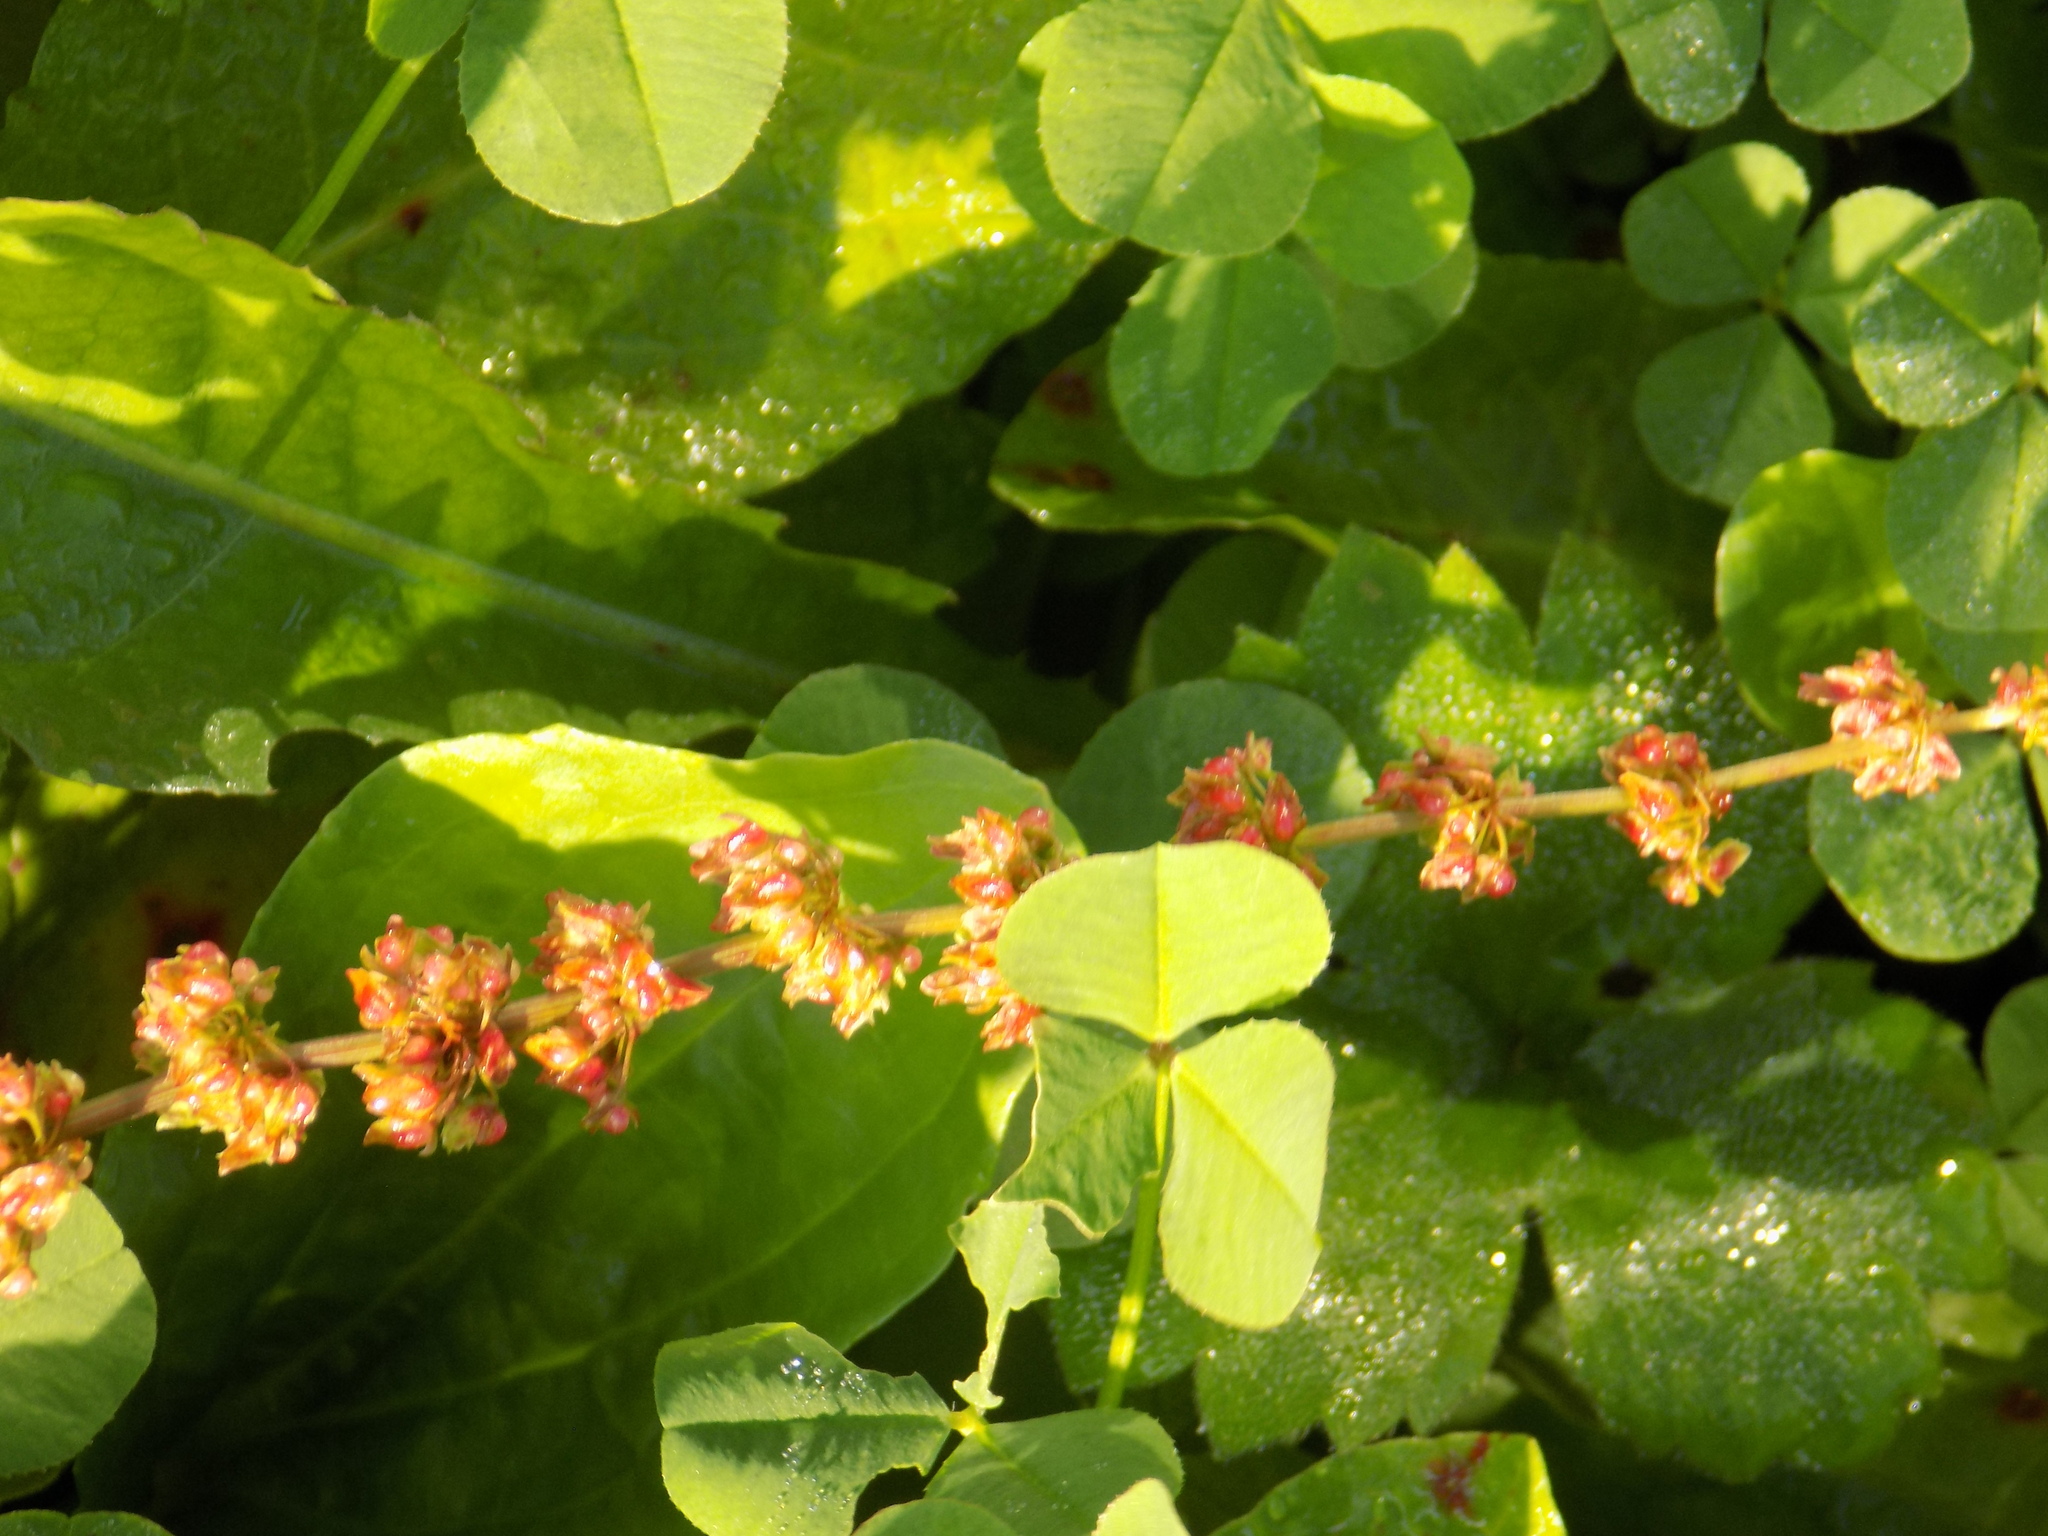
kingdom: Plantae
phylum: Tracheophyta
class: Magnoliopsida
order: Caryophyllales
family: Polygonaceae
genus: Rumex
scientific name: Rumex obtusifolius
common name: Bitter dock
